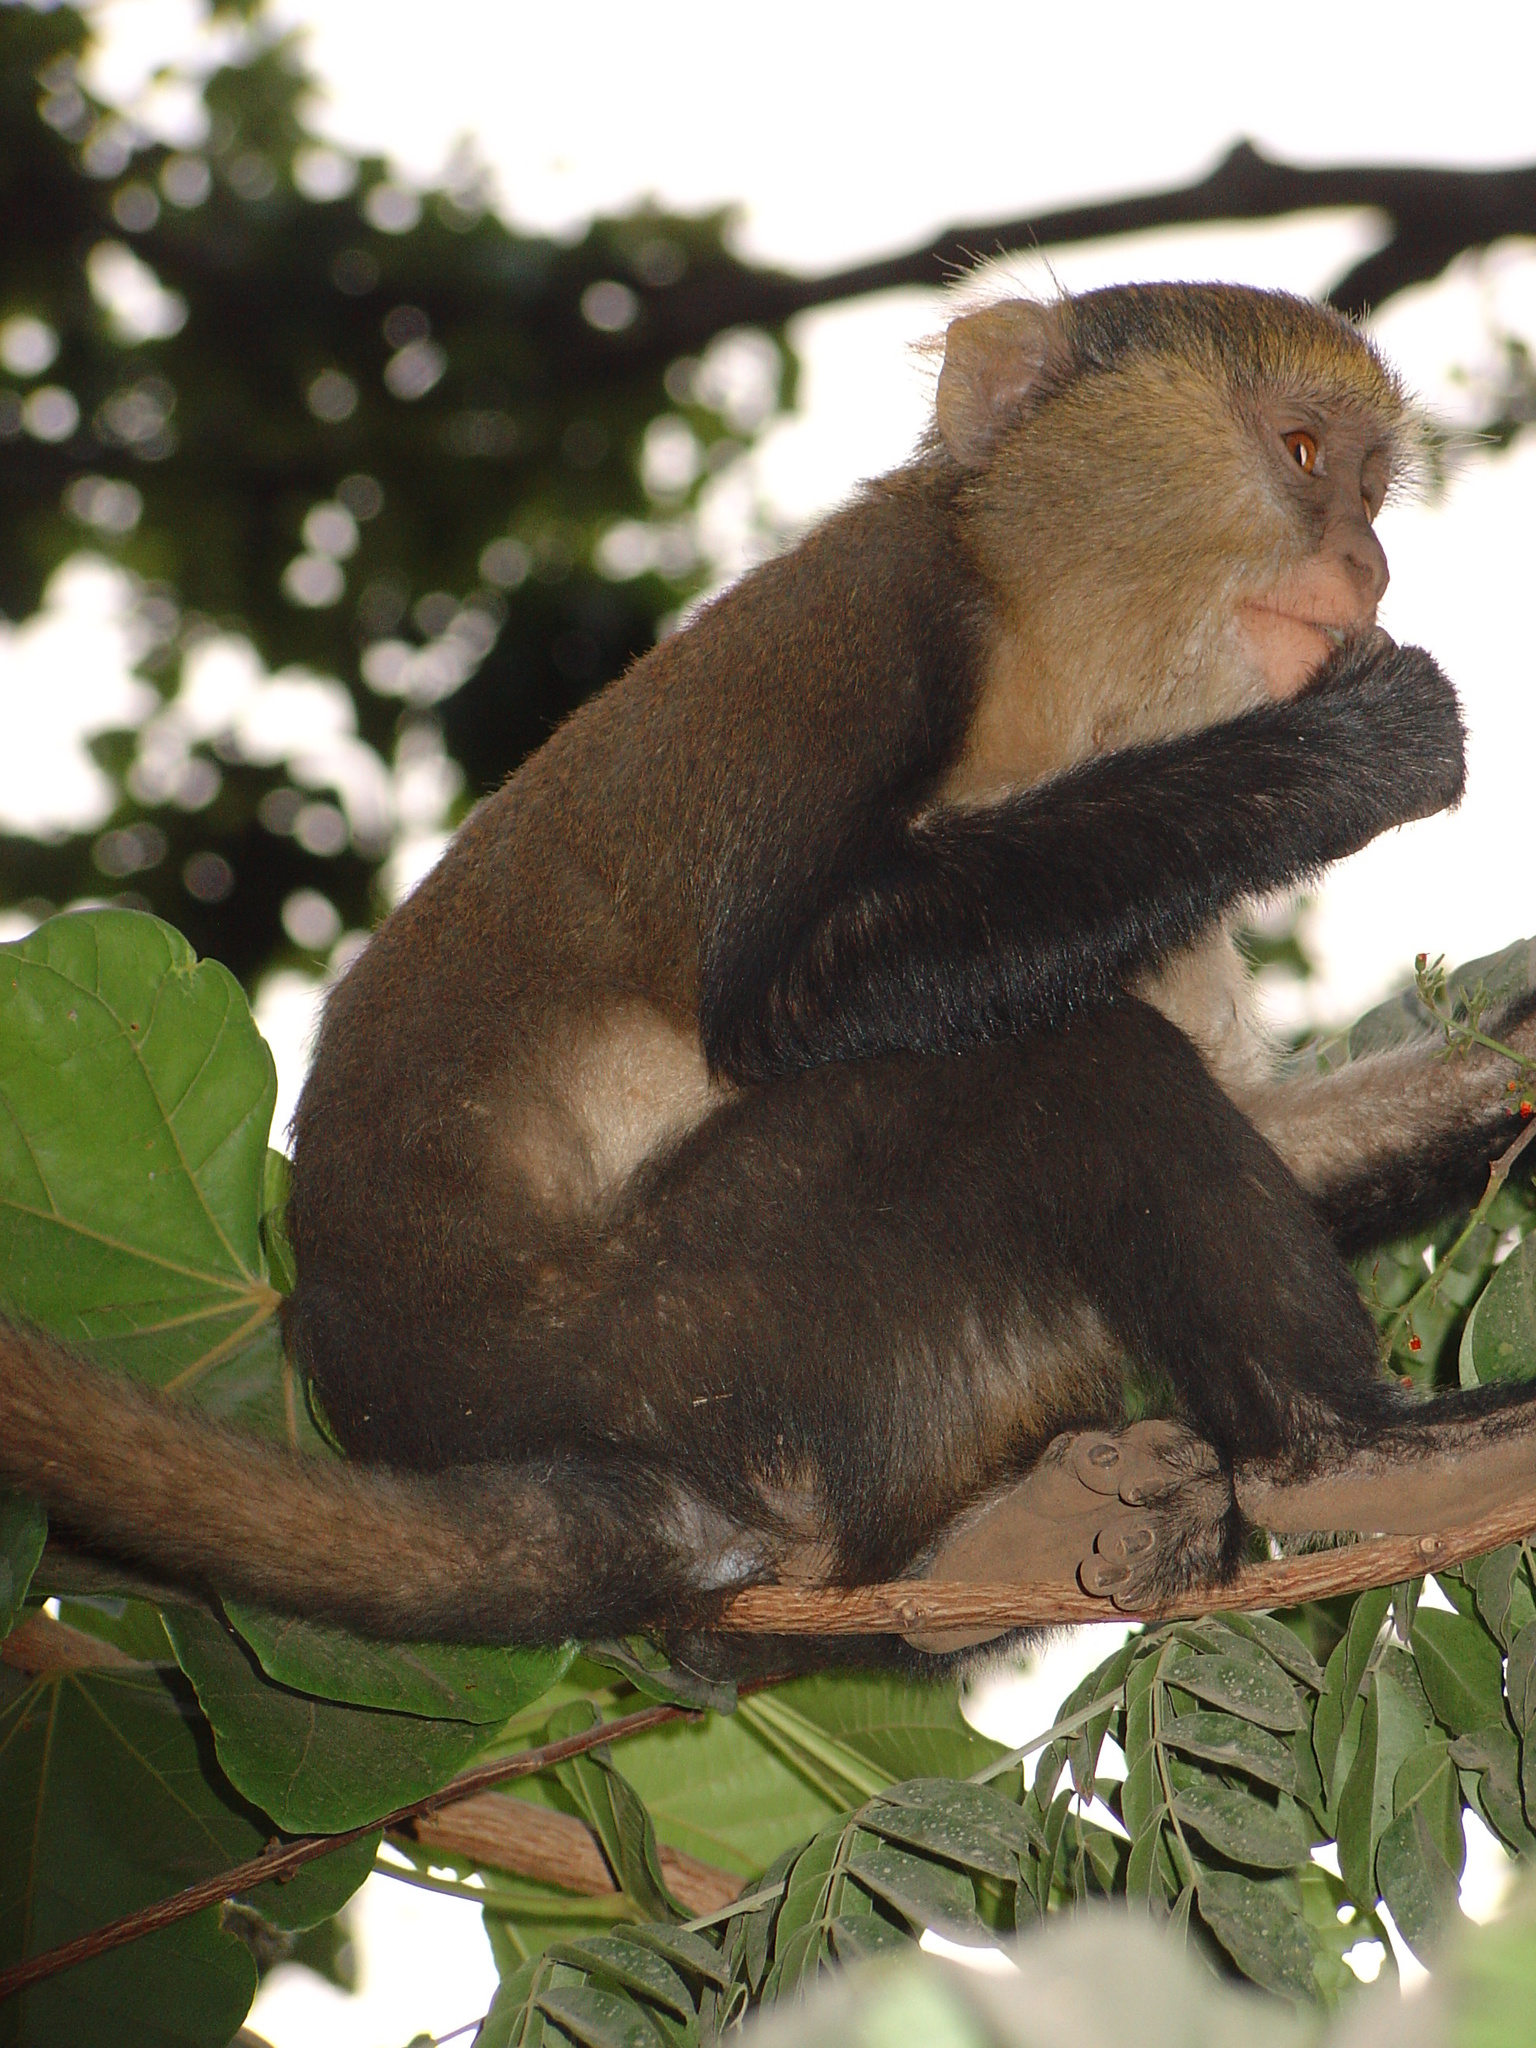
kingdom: Animalia
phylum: Chordata
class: Mammalia
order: Primates
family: Cercopithecidae
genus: Cercopithecus
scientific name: Cercopithecus mona
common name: Mona monkey
